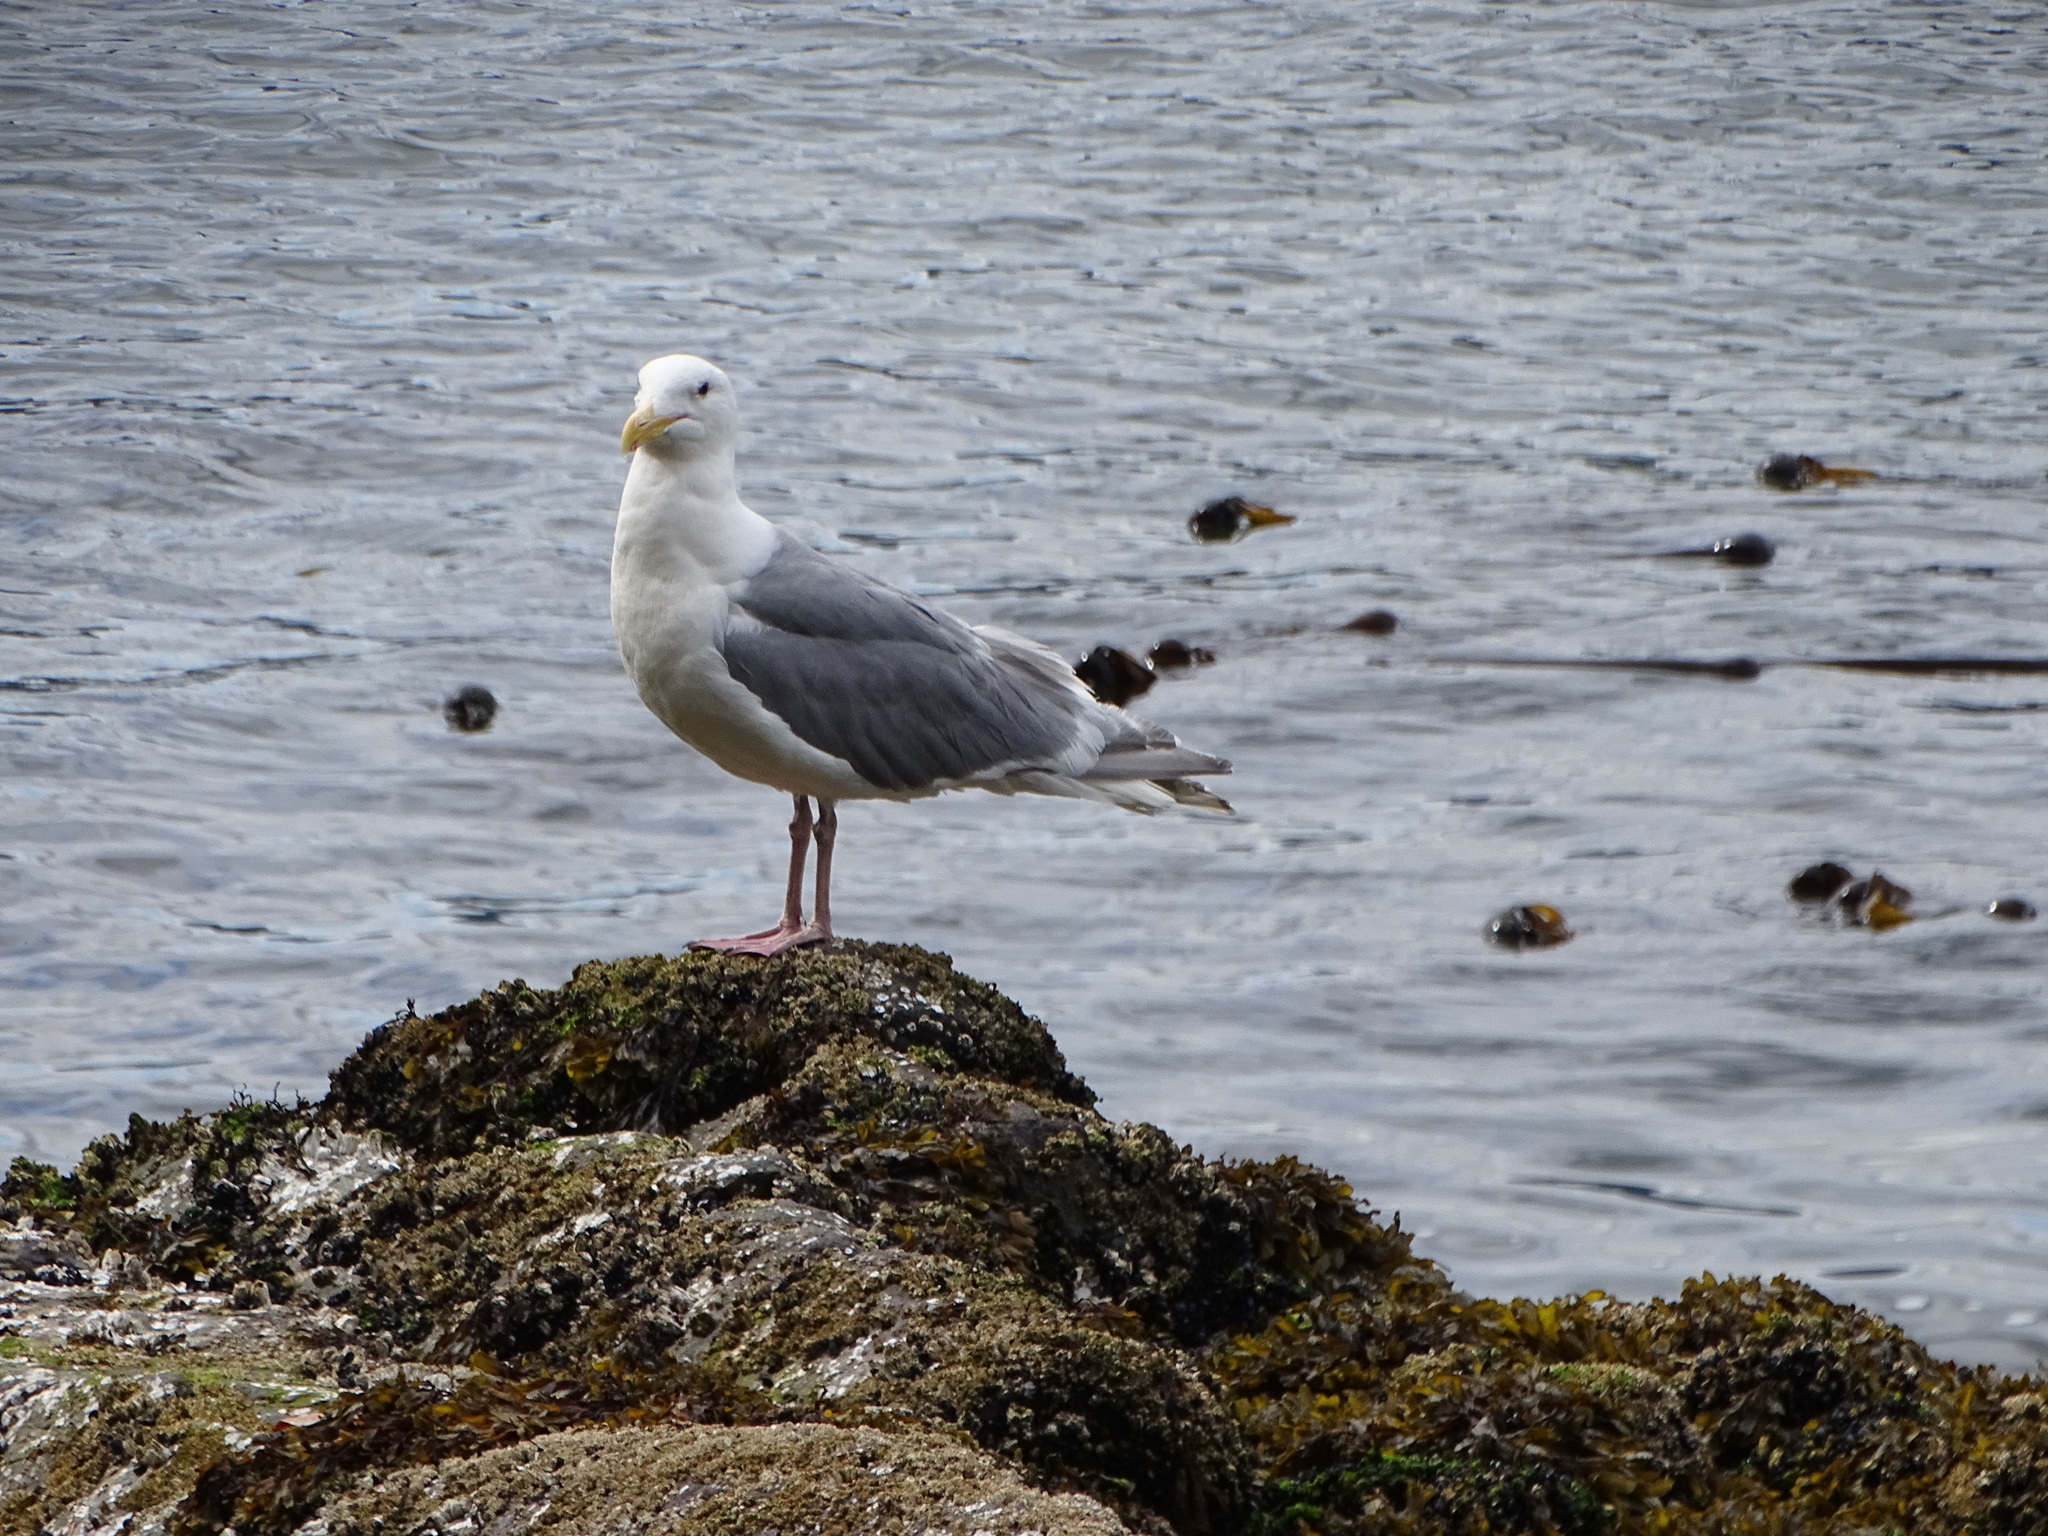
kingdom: Animalia
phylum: Chordata
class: Aves
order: Charadriiformes
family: Laridae
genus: Larus
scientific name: Larus glaucescens
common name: Glaucous-winged gull
